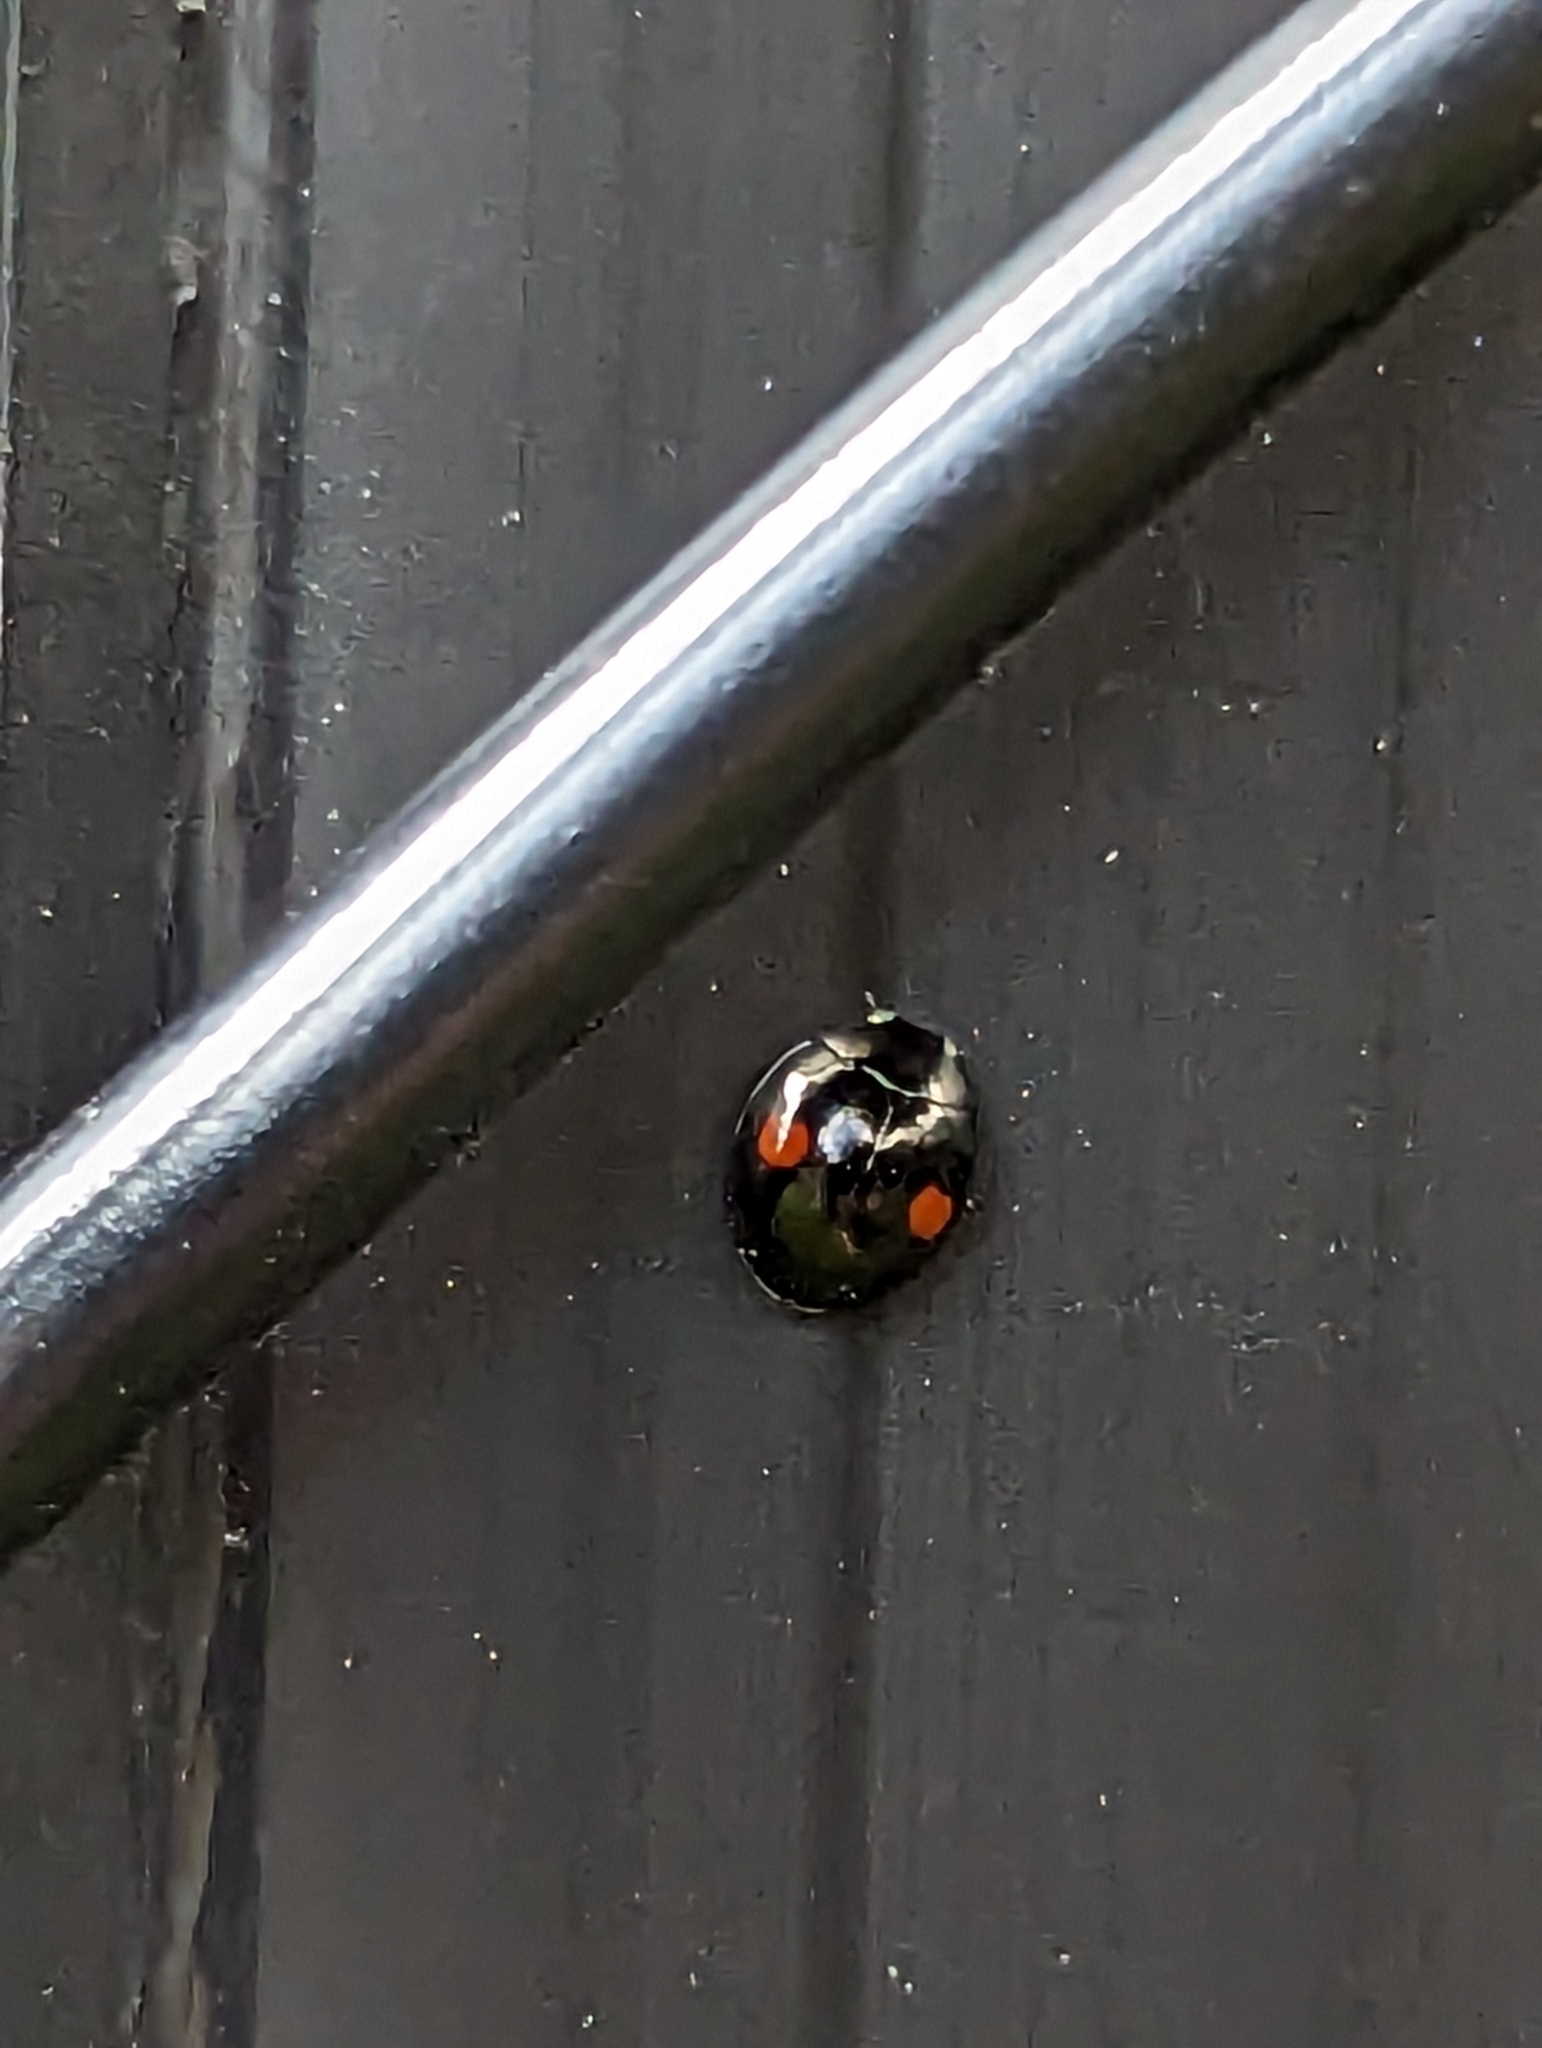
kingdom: Animalia
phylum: Arthropoda
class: Insecta
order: Coleoptera
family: Coccinellidae
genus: Chilocorus
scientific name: Chilocorus stigma
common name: Twicestabbed lady beetle
